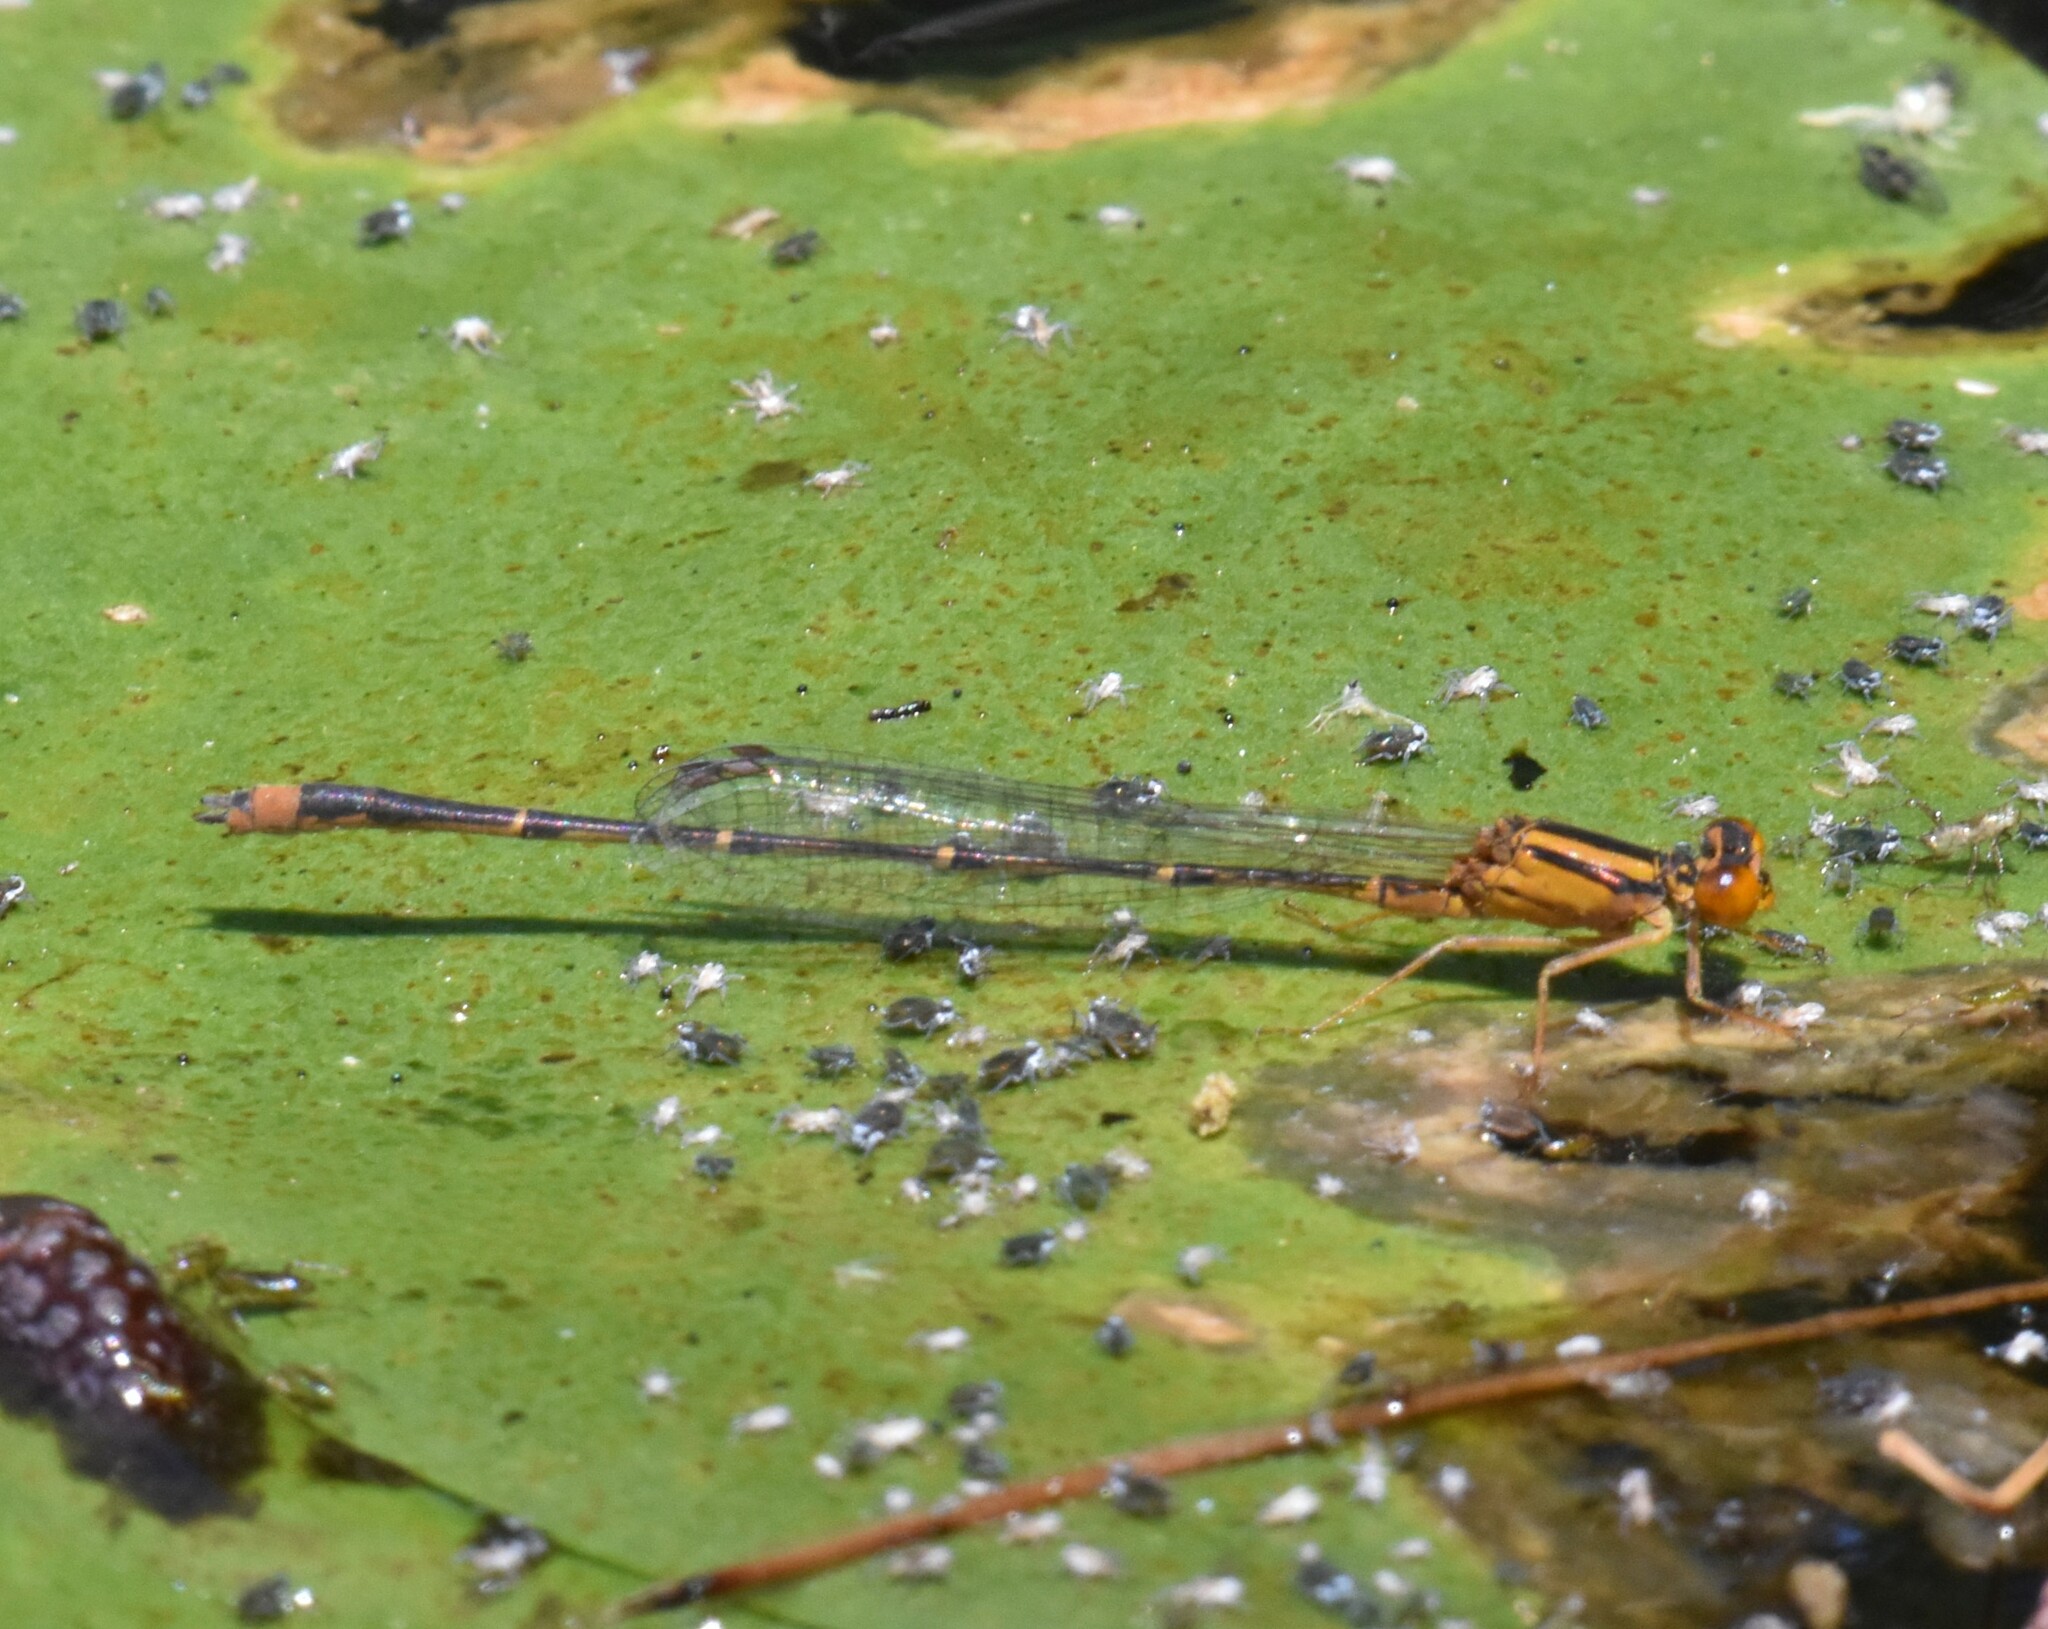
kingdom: Animalia
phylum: Arthropoda
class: Insecta
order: Odonata
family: Coenagrionidae
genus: Enallagma
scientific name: Enallagma signatum
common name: Orange bluet
